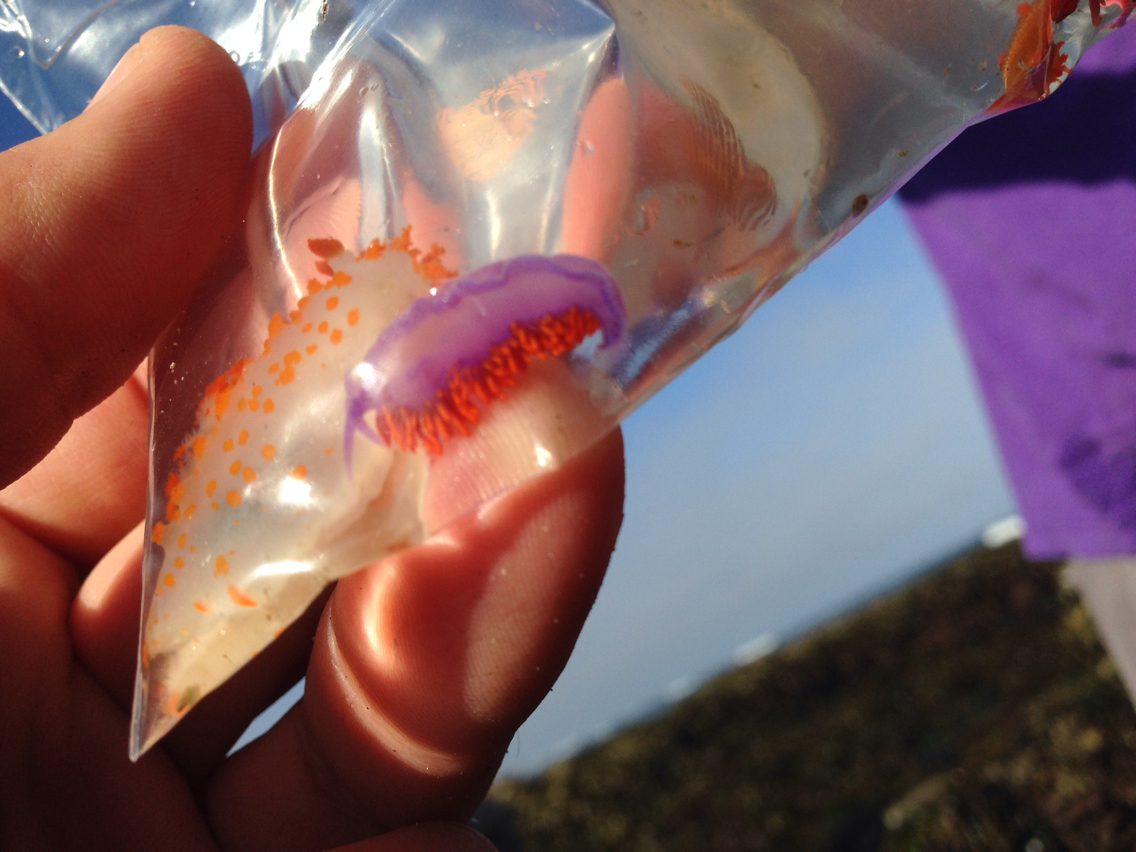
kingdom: Animalia
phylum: Mollusca
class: Gastropoda
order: Nudibranchia
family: Flabellinopsidae
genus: Flabellinopsis
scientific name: Flabellinopsis iodinea
